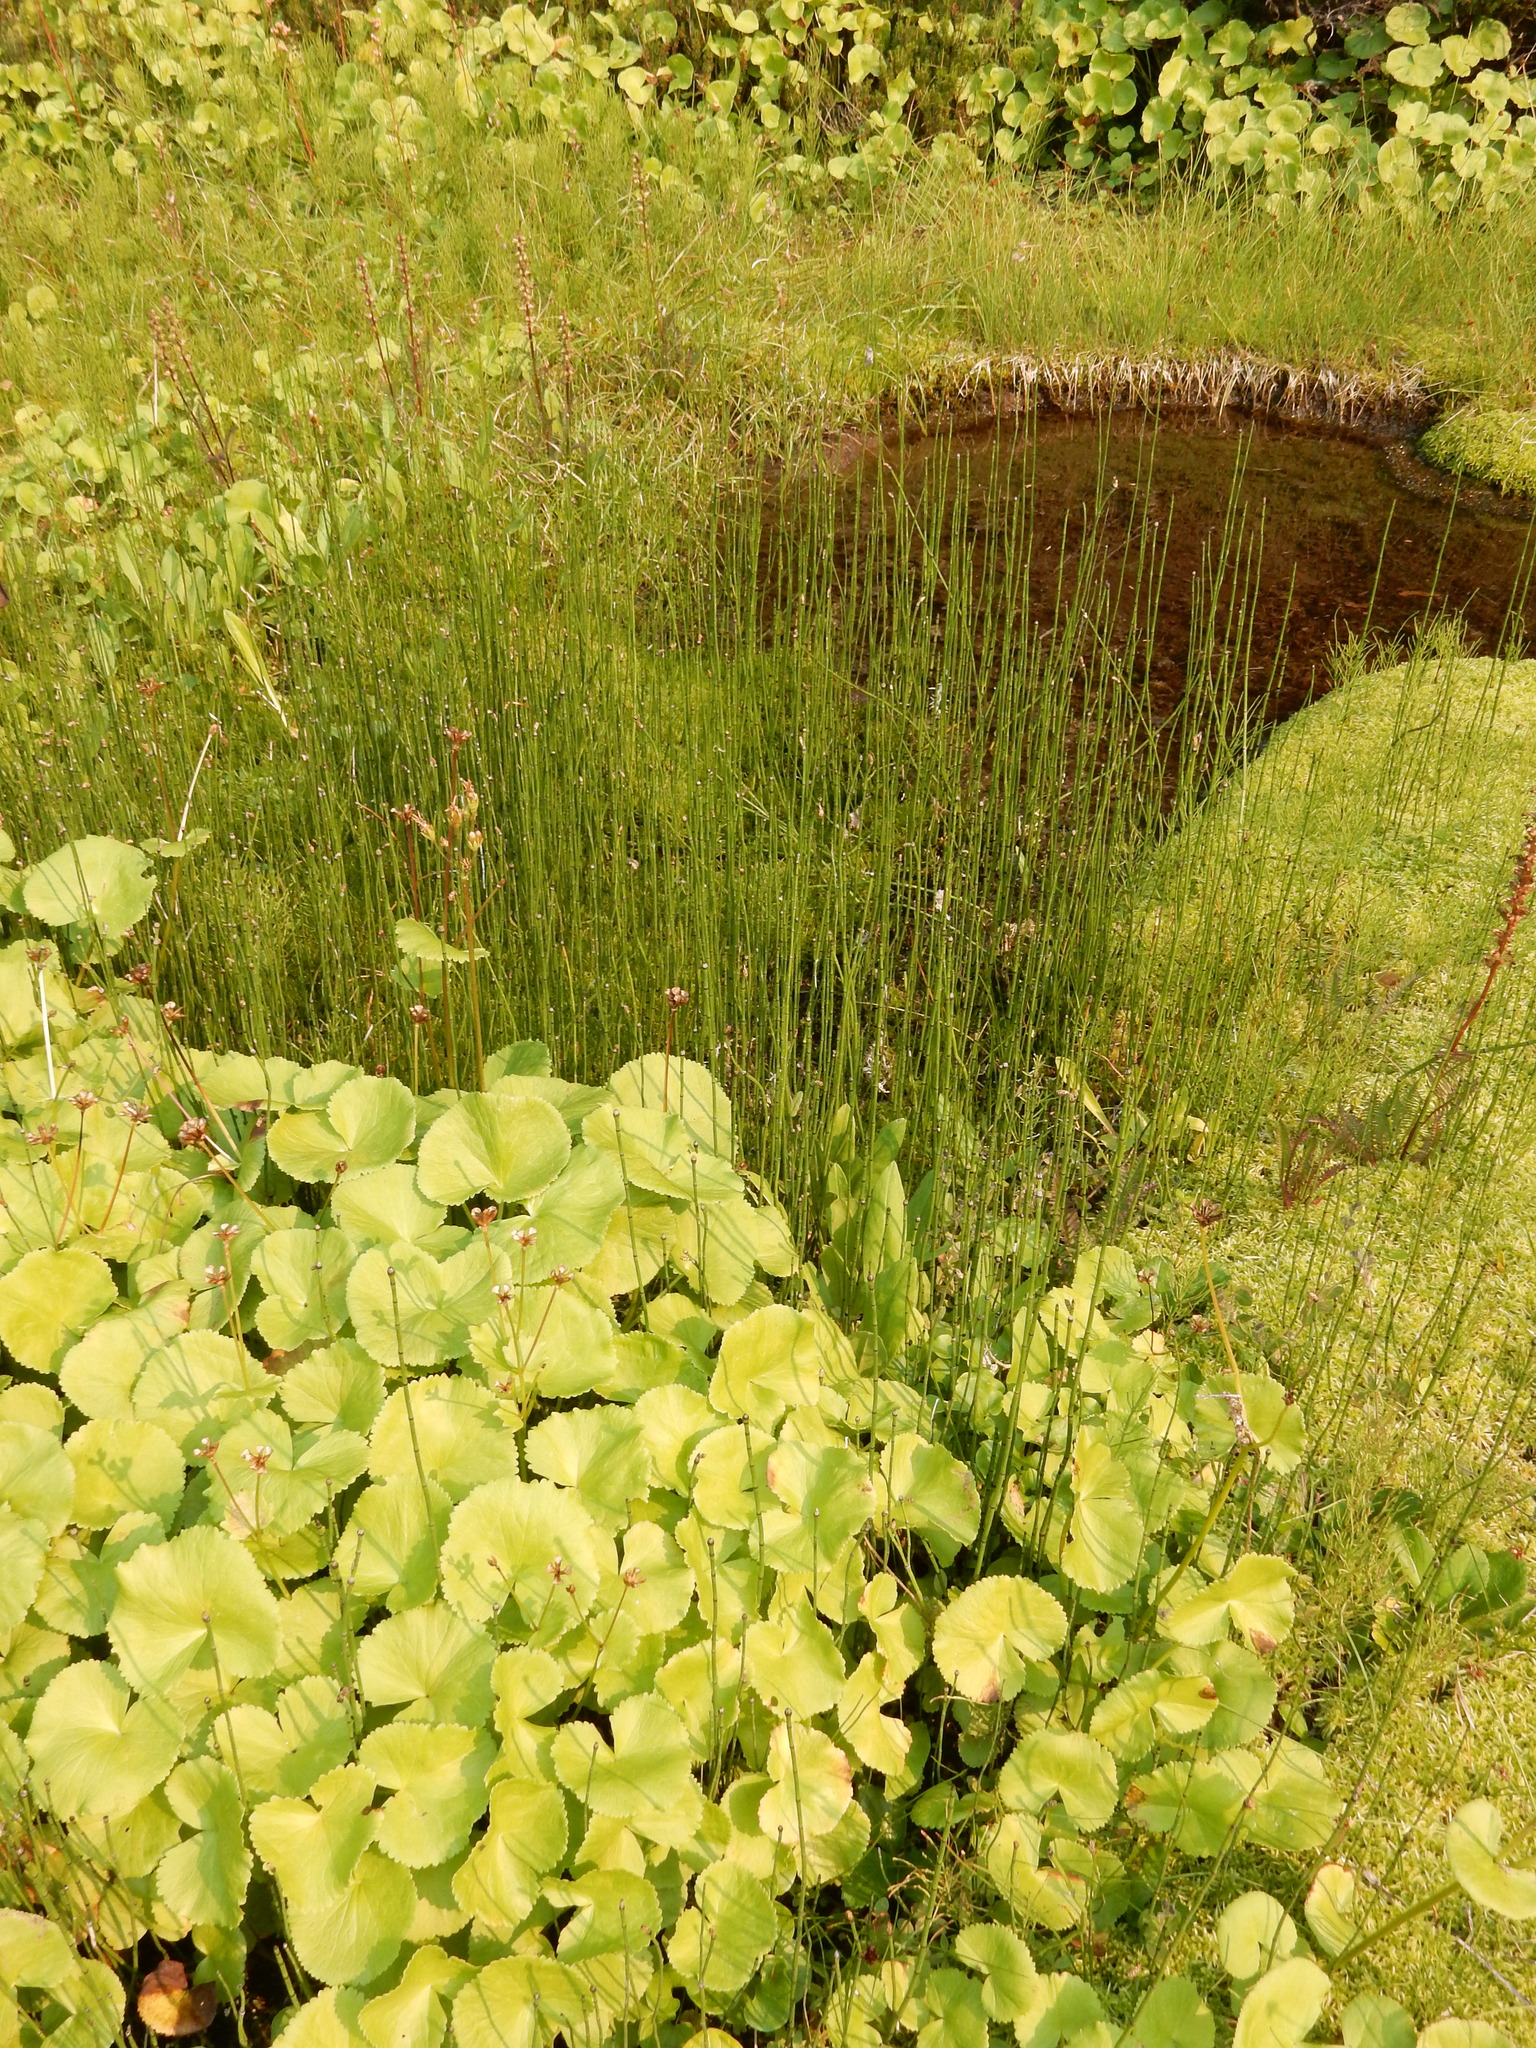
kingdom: Plantae
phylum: Tracheophyta
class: Polypodiopsida
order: Equisetales
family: Equisetaceae
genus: Equisetum
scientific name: Equisetum variegatum
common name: Variegated horsetail
